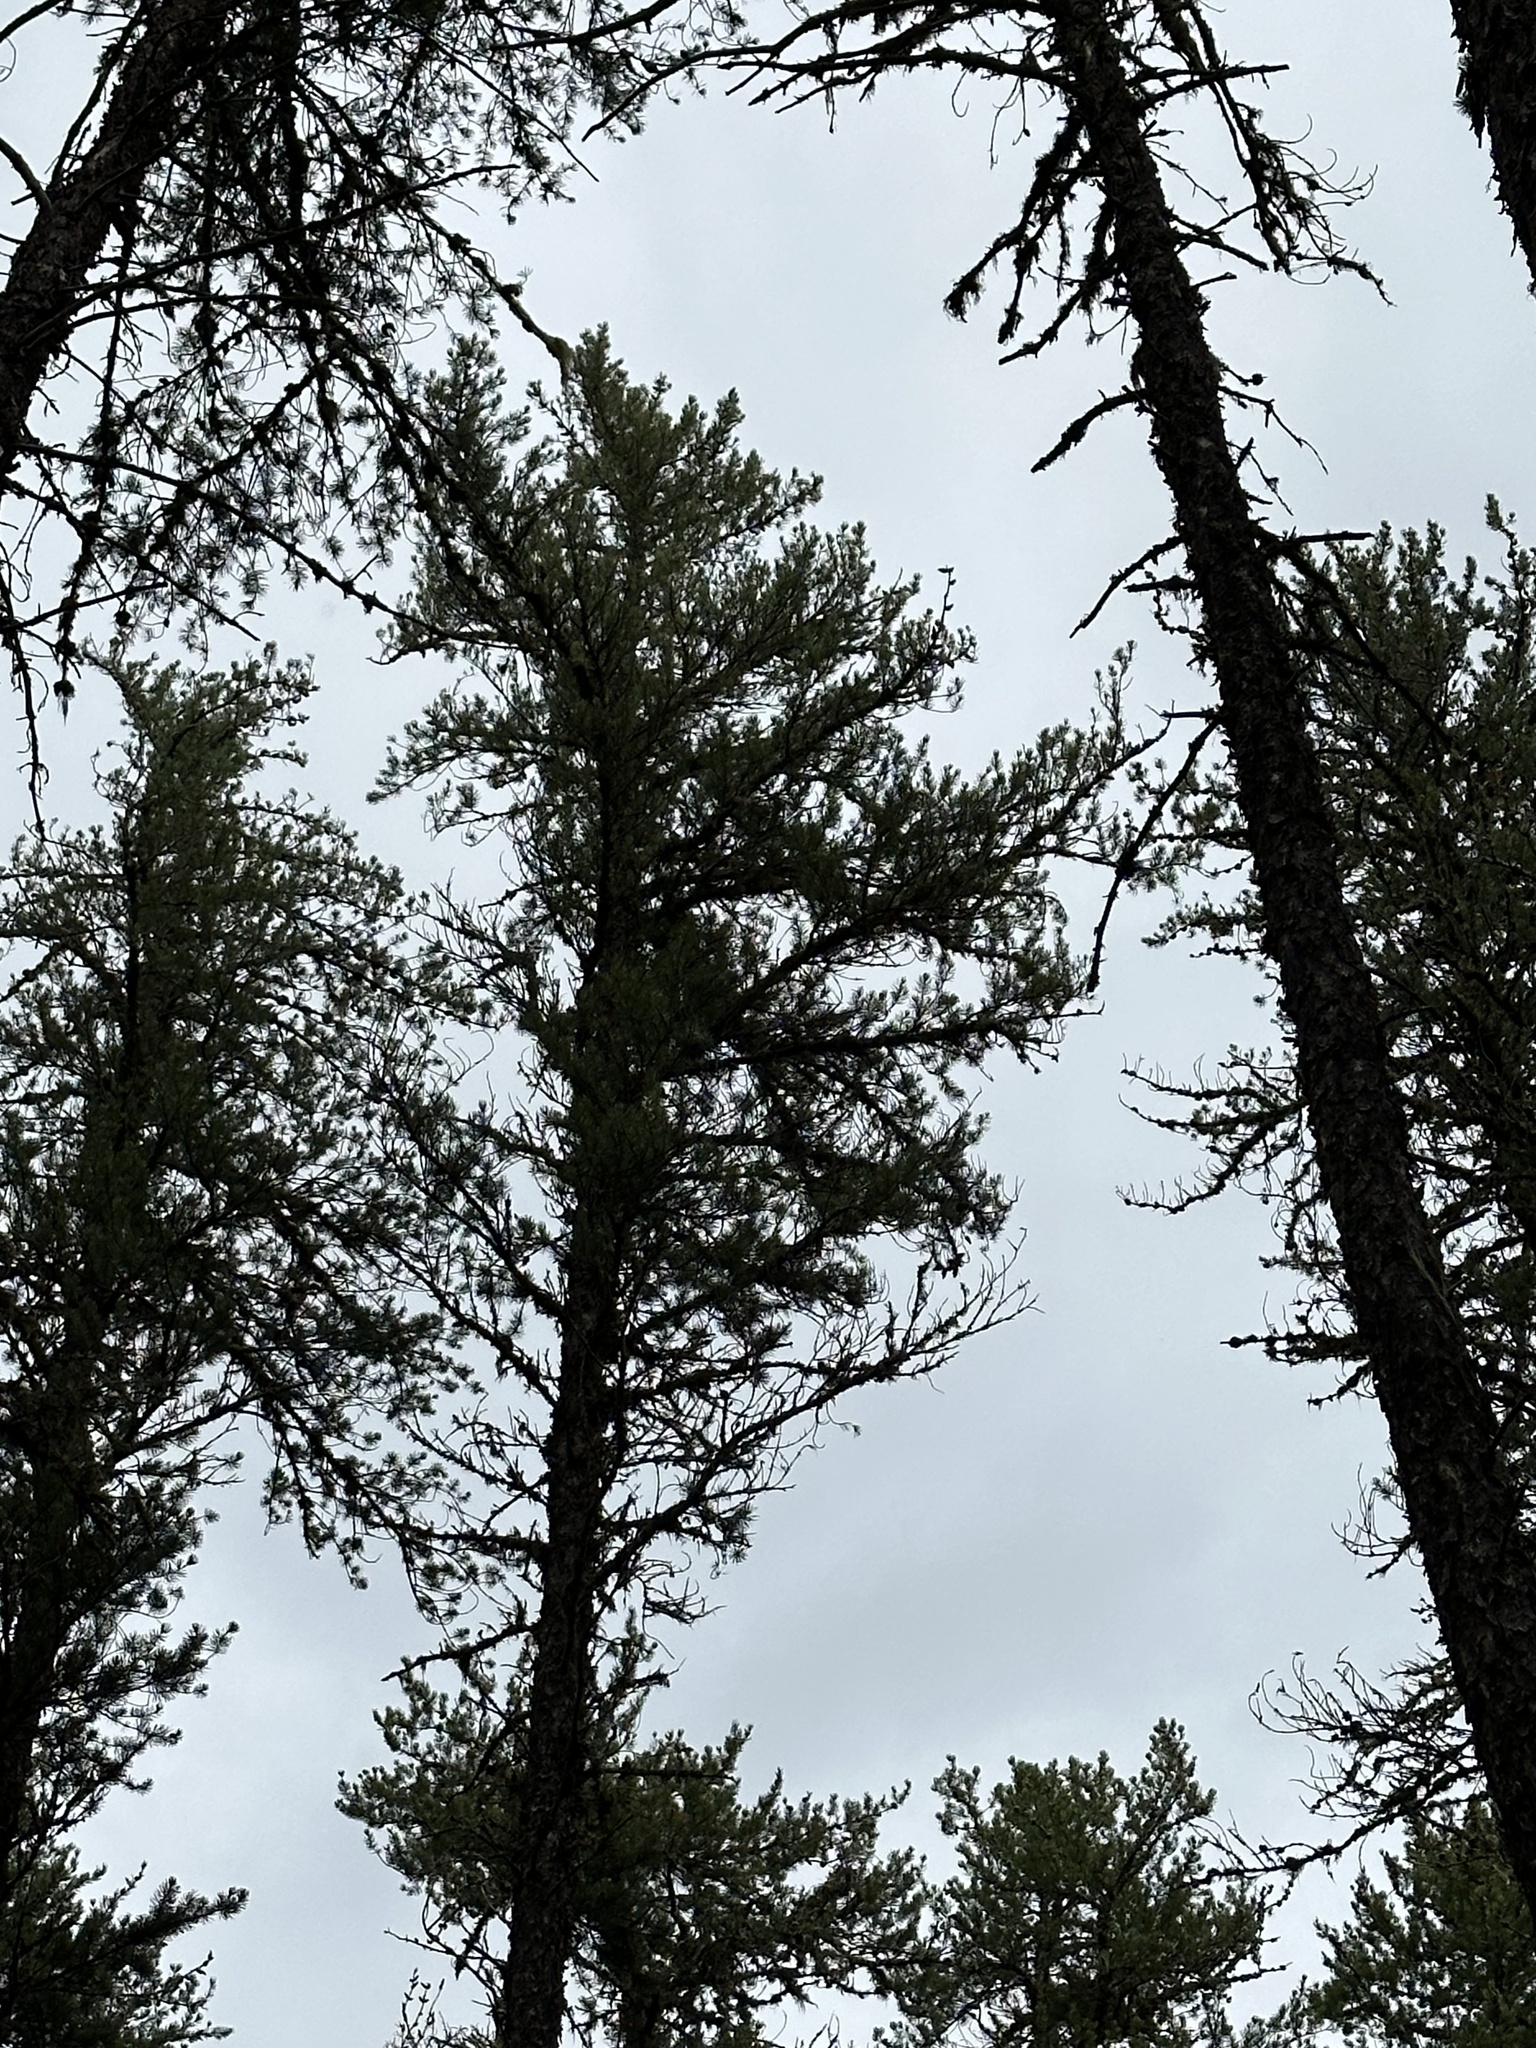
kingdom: Plantae
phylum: Tracheophyta
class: Pinopsida
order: Pinales
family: Pinaceae
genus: Pinus
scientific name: Pinus banksiana
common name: Jack pine
